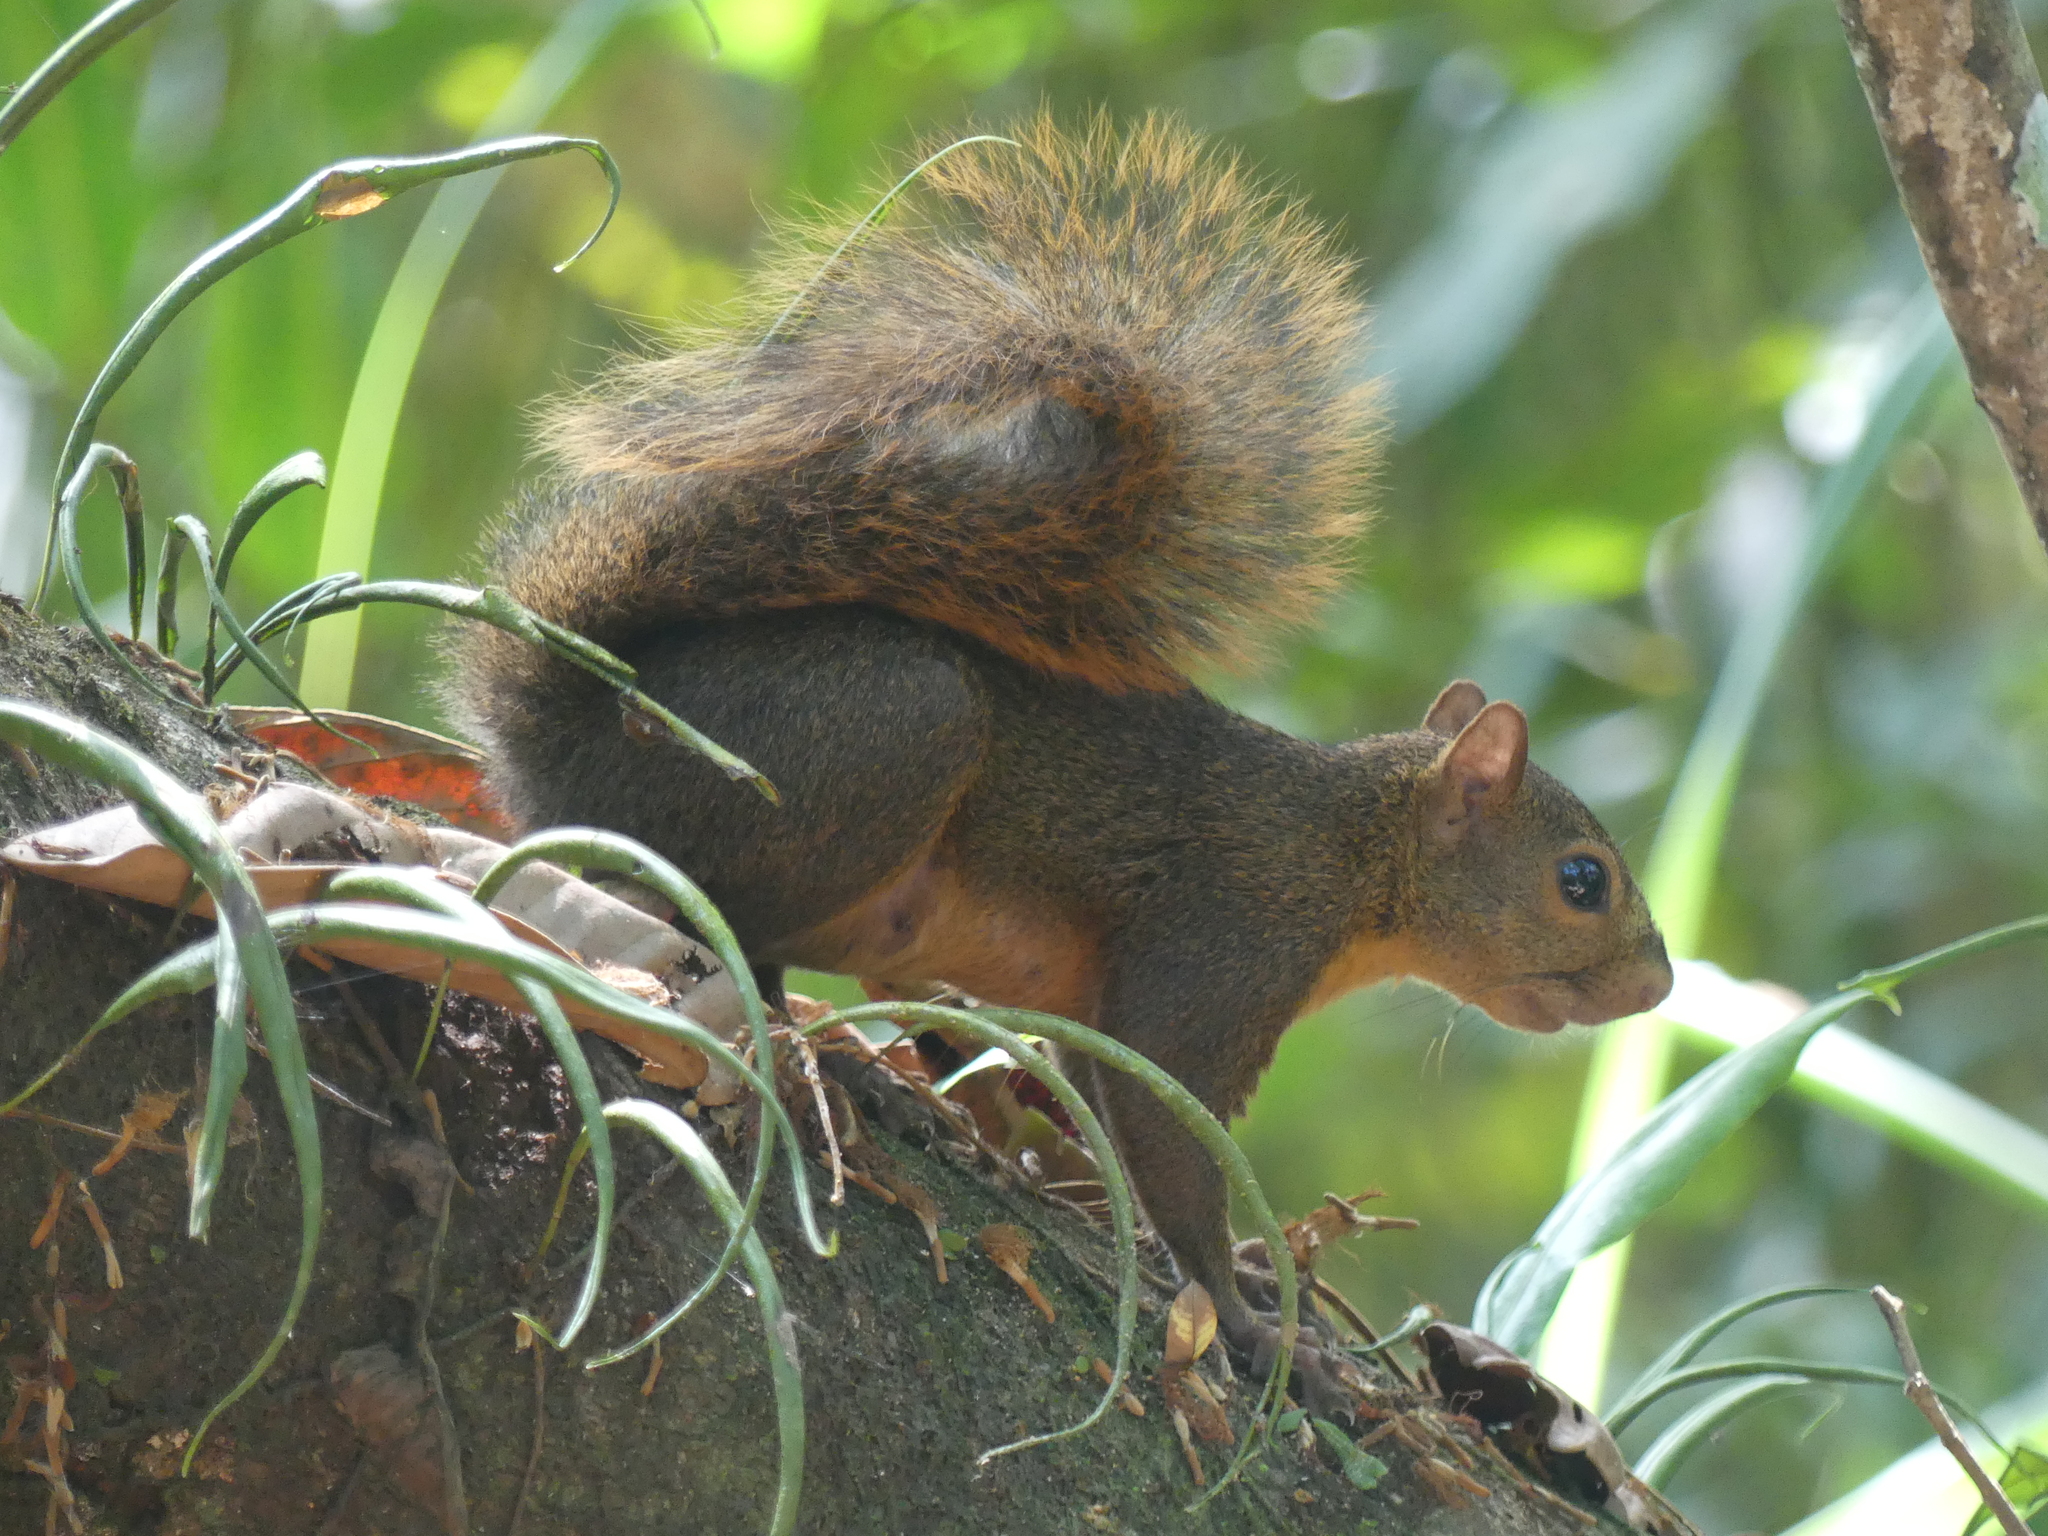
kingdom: Animalia
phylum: Chordata
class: Mammalia
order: Rodentia
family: Sciuridae
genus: Sciurus
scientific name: Sciurus granatensis
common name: Red-tailed squirrel
